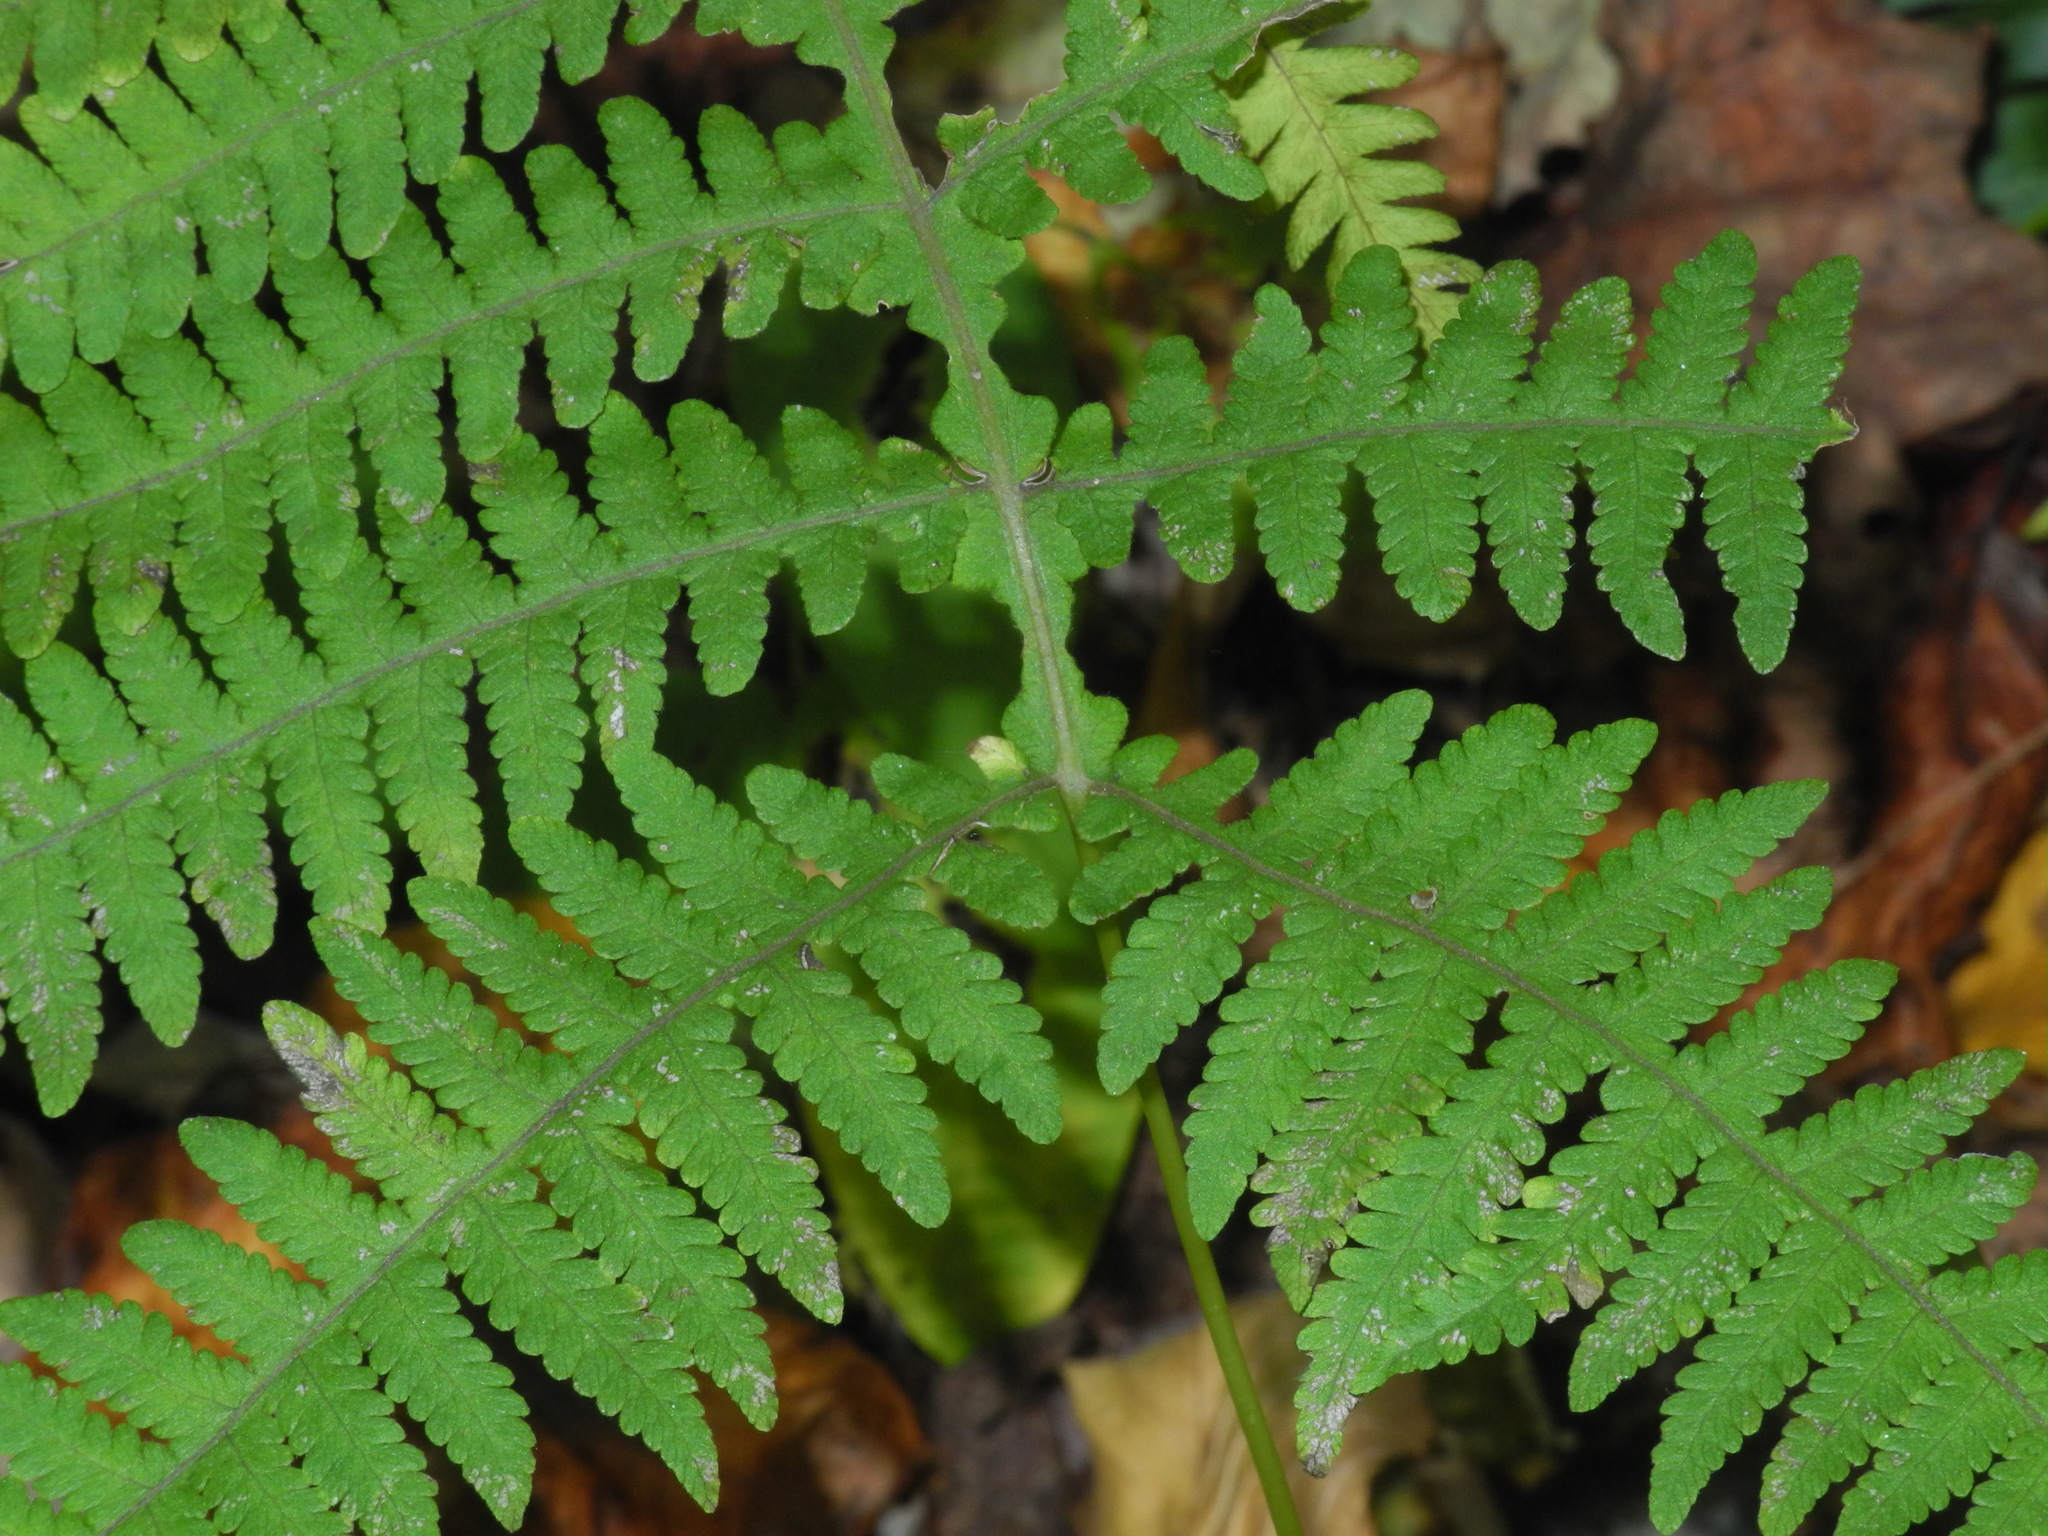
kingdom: Plantae
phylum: Tracheophyta
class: Polypodiopsida
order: Polypodiales
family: Thelypteridaceae
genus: Phegopteris
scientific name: Phegopteris hexagonoptera
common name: Broad beech fern
